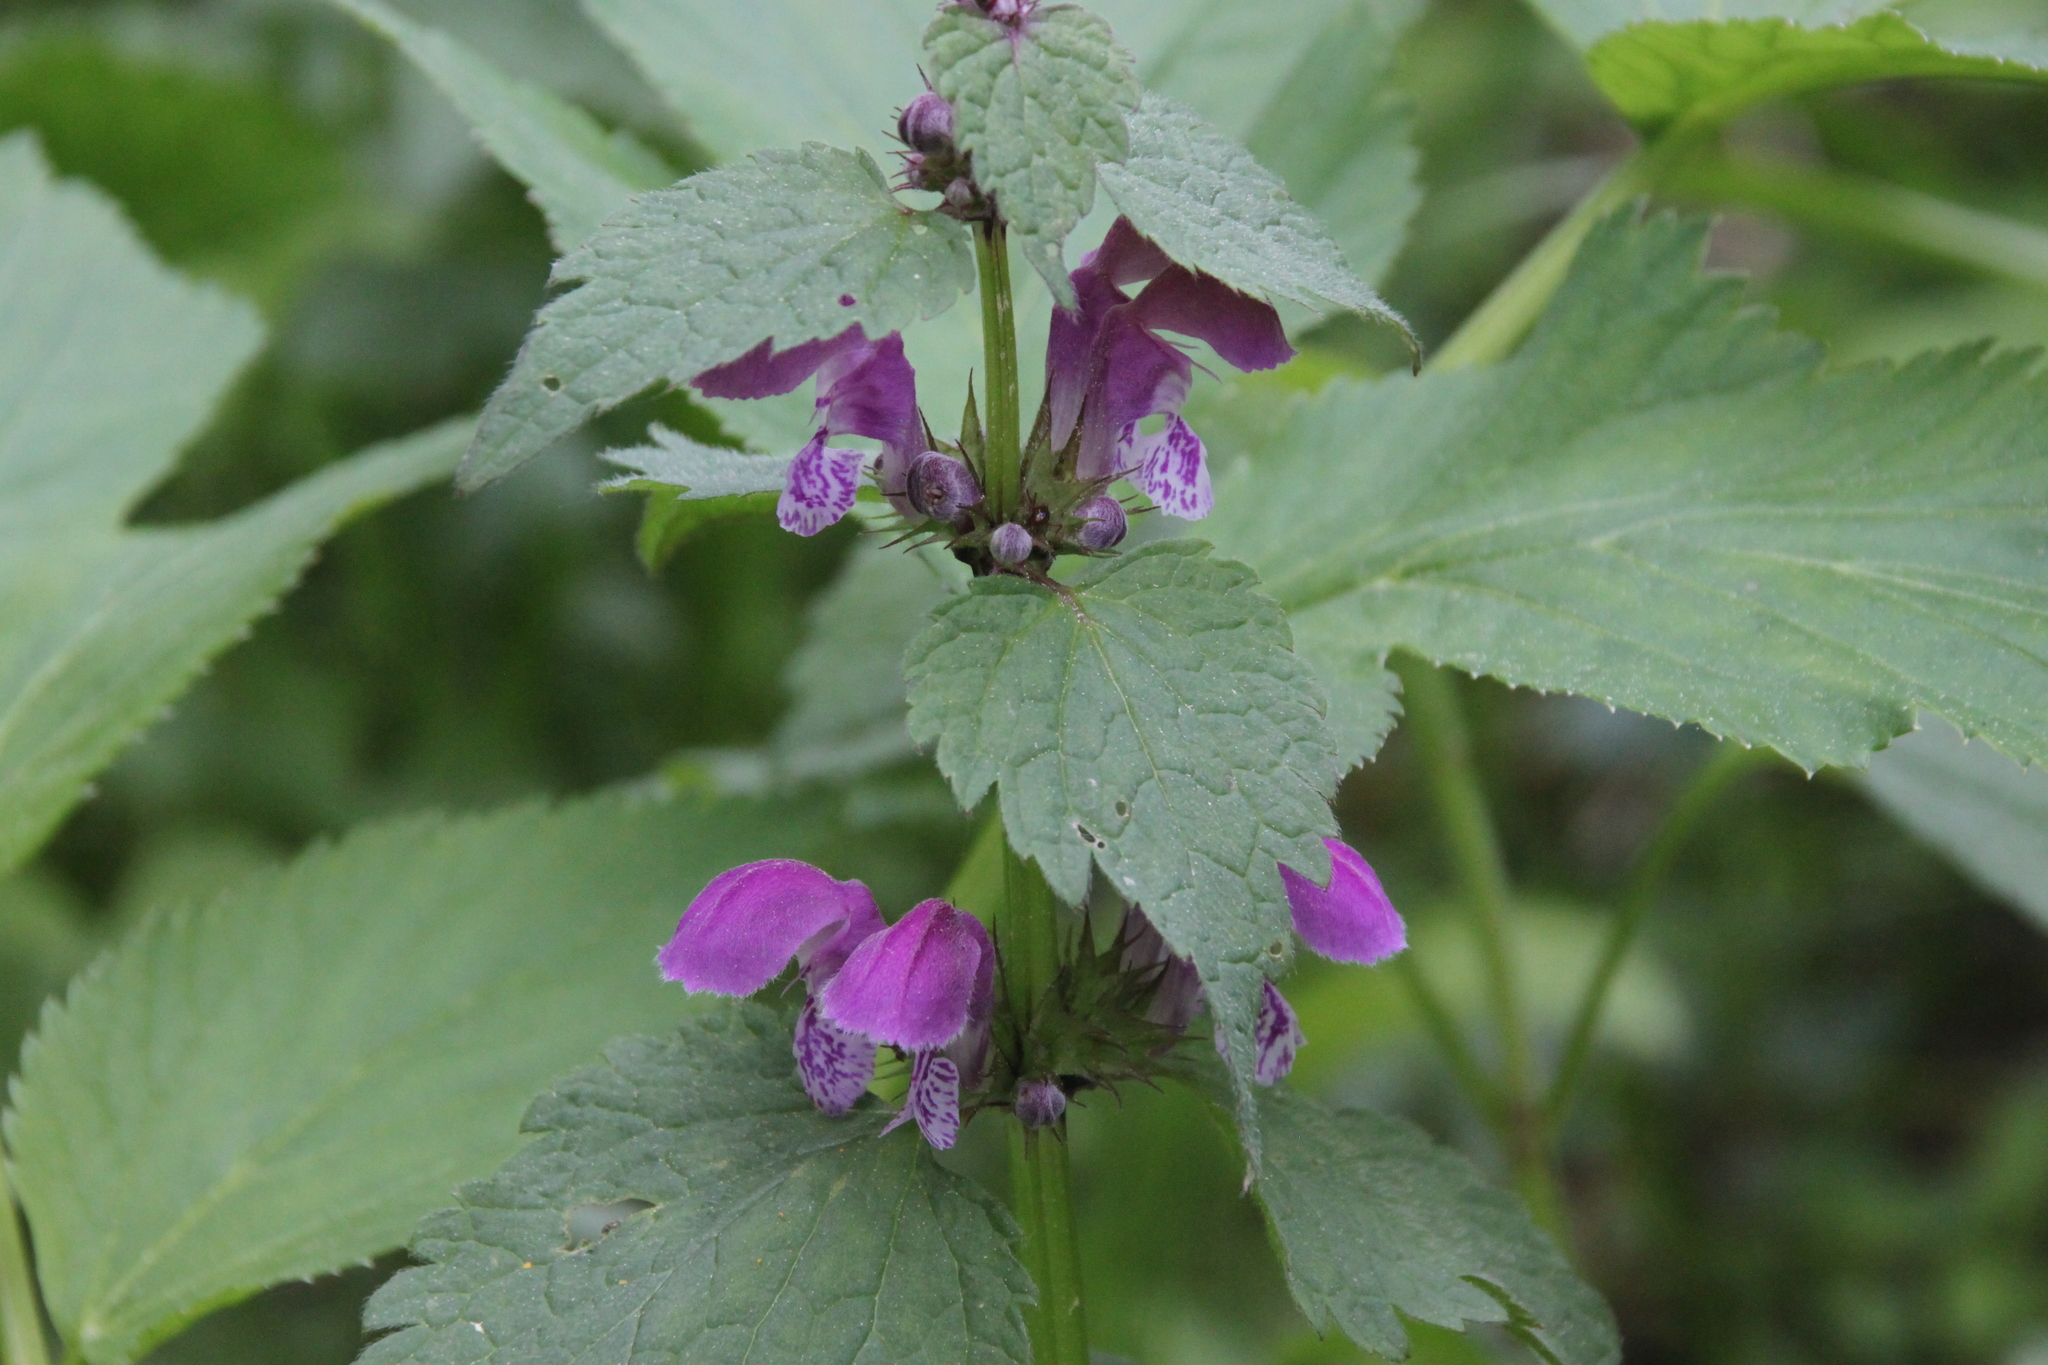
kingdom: Plantae
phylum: Tracheophyta
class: Magnoliopsida
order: Lamiales
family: Lamiaceae
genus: Lamium
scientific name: Lamium maculatum
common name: Spotted dead-nettle
